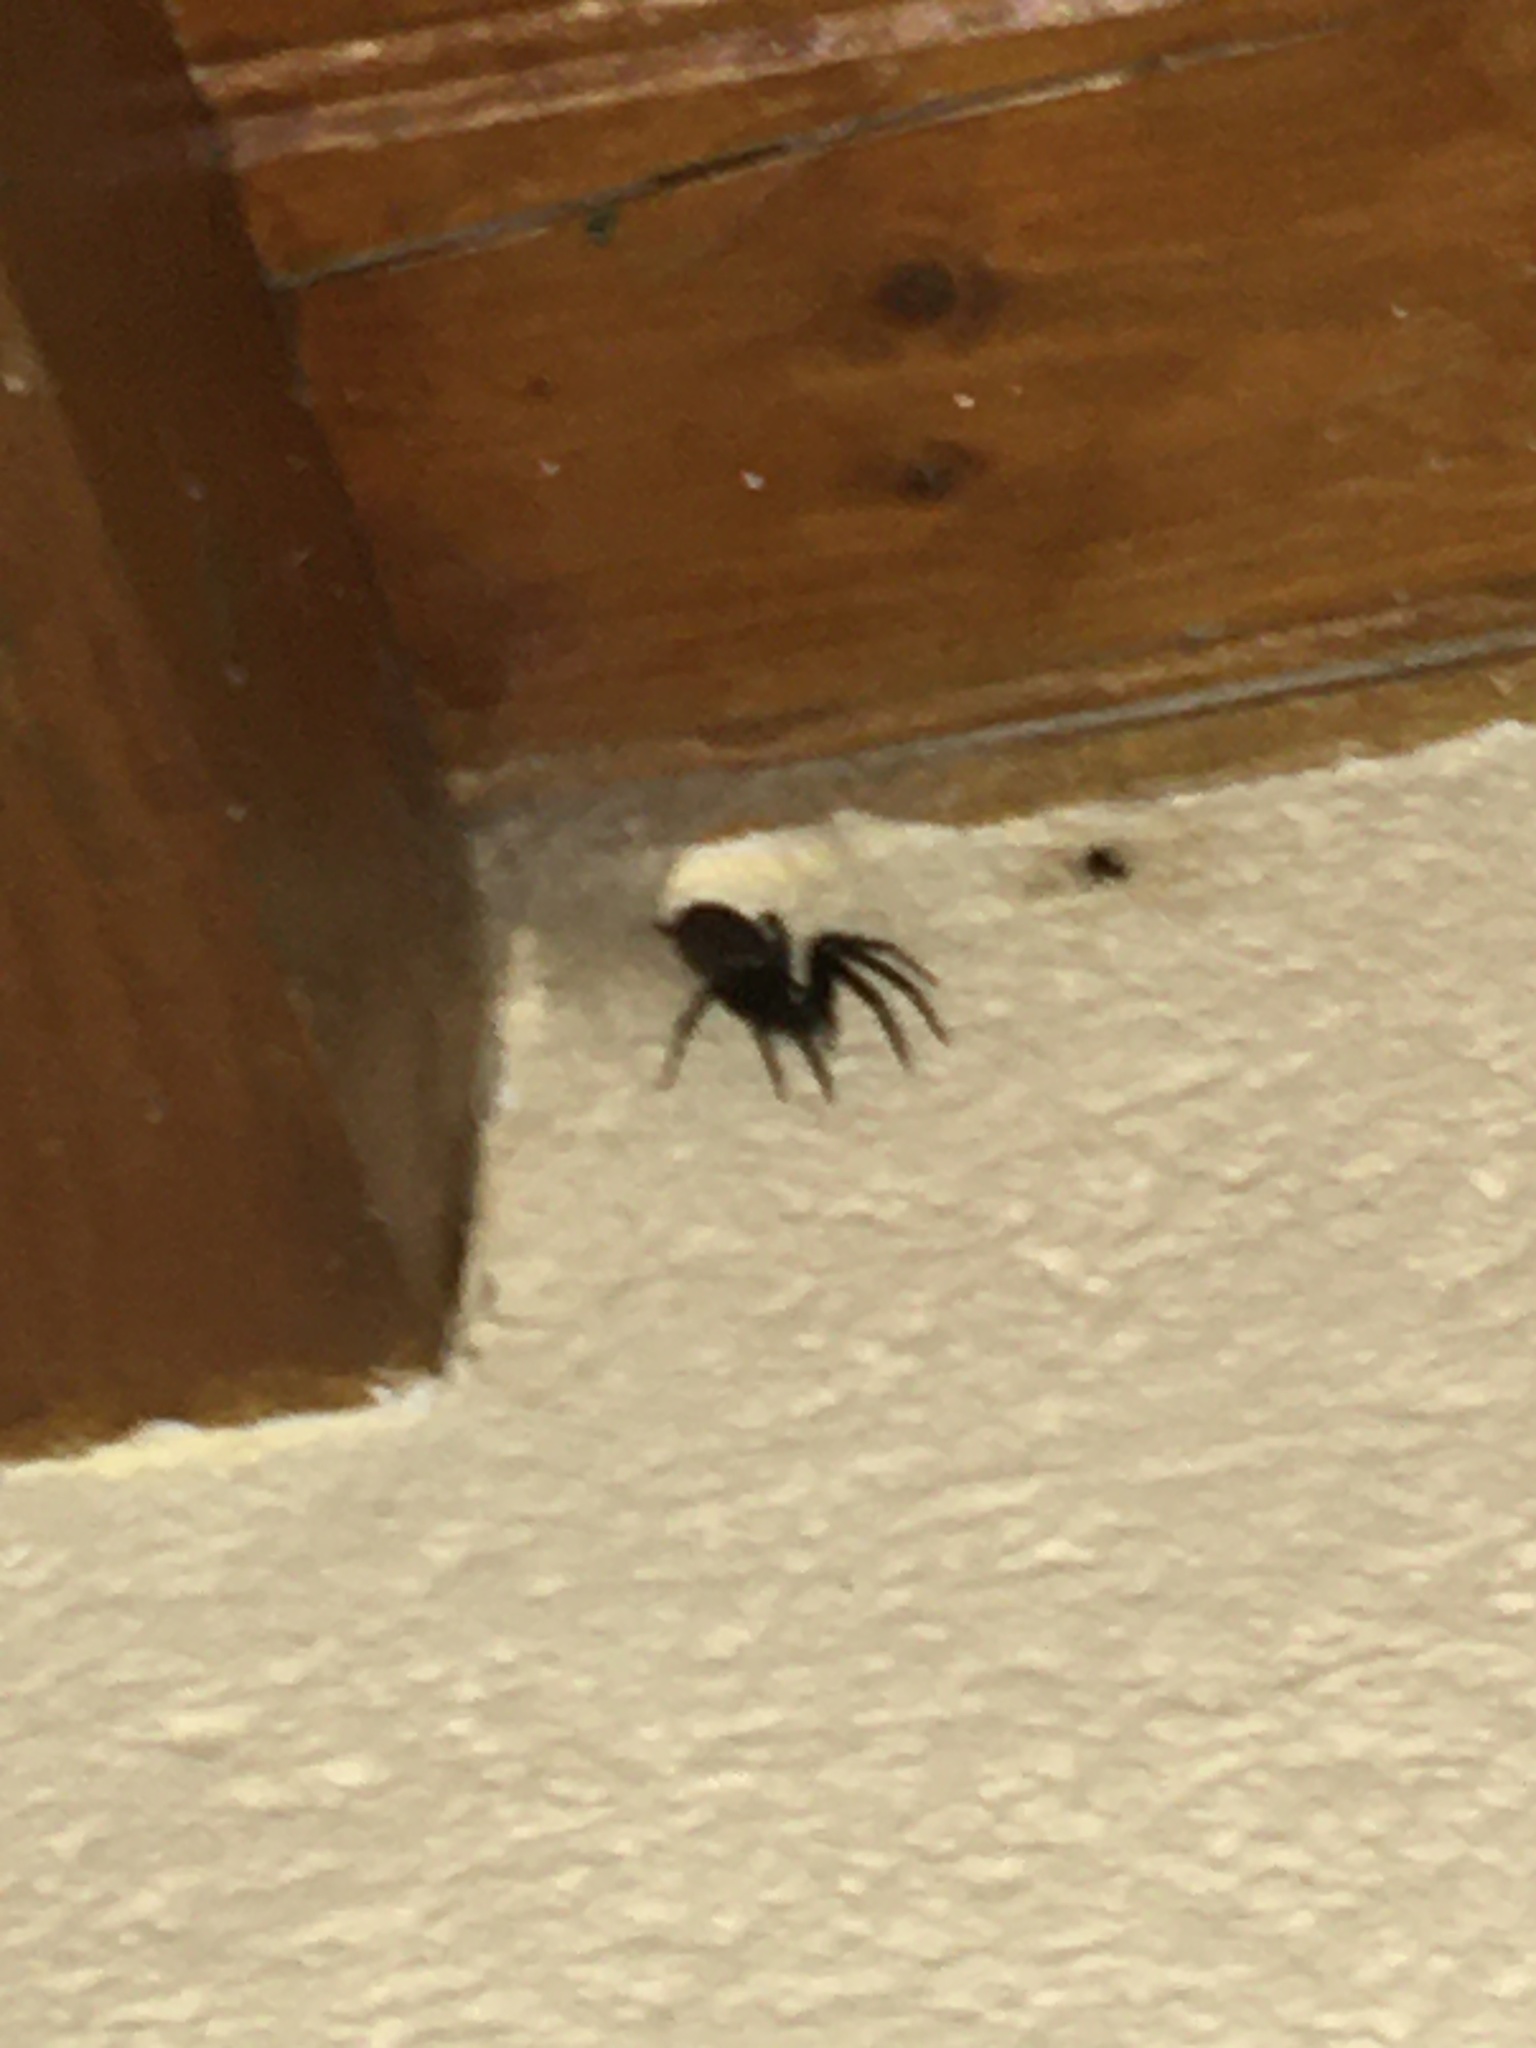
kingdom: Animalia
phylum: Arthropoda
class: Arachnida
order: Araneae
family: Segestriidae
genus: Segestria
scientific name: Segestria florentina
